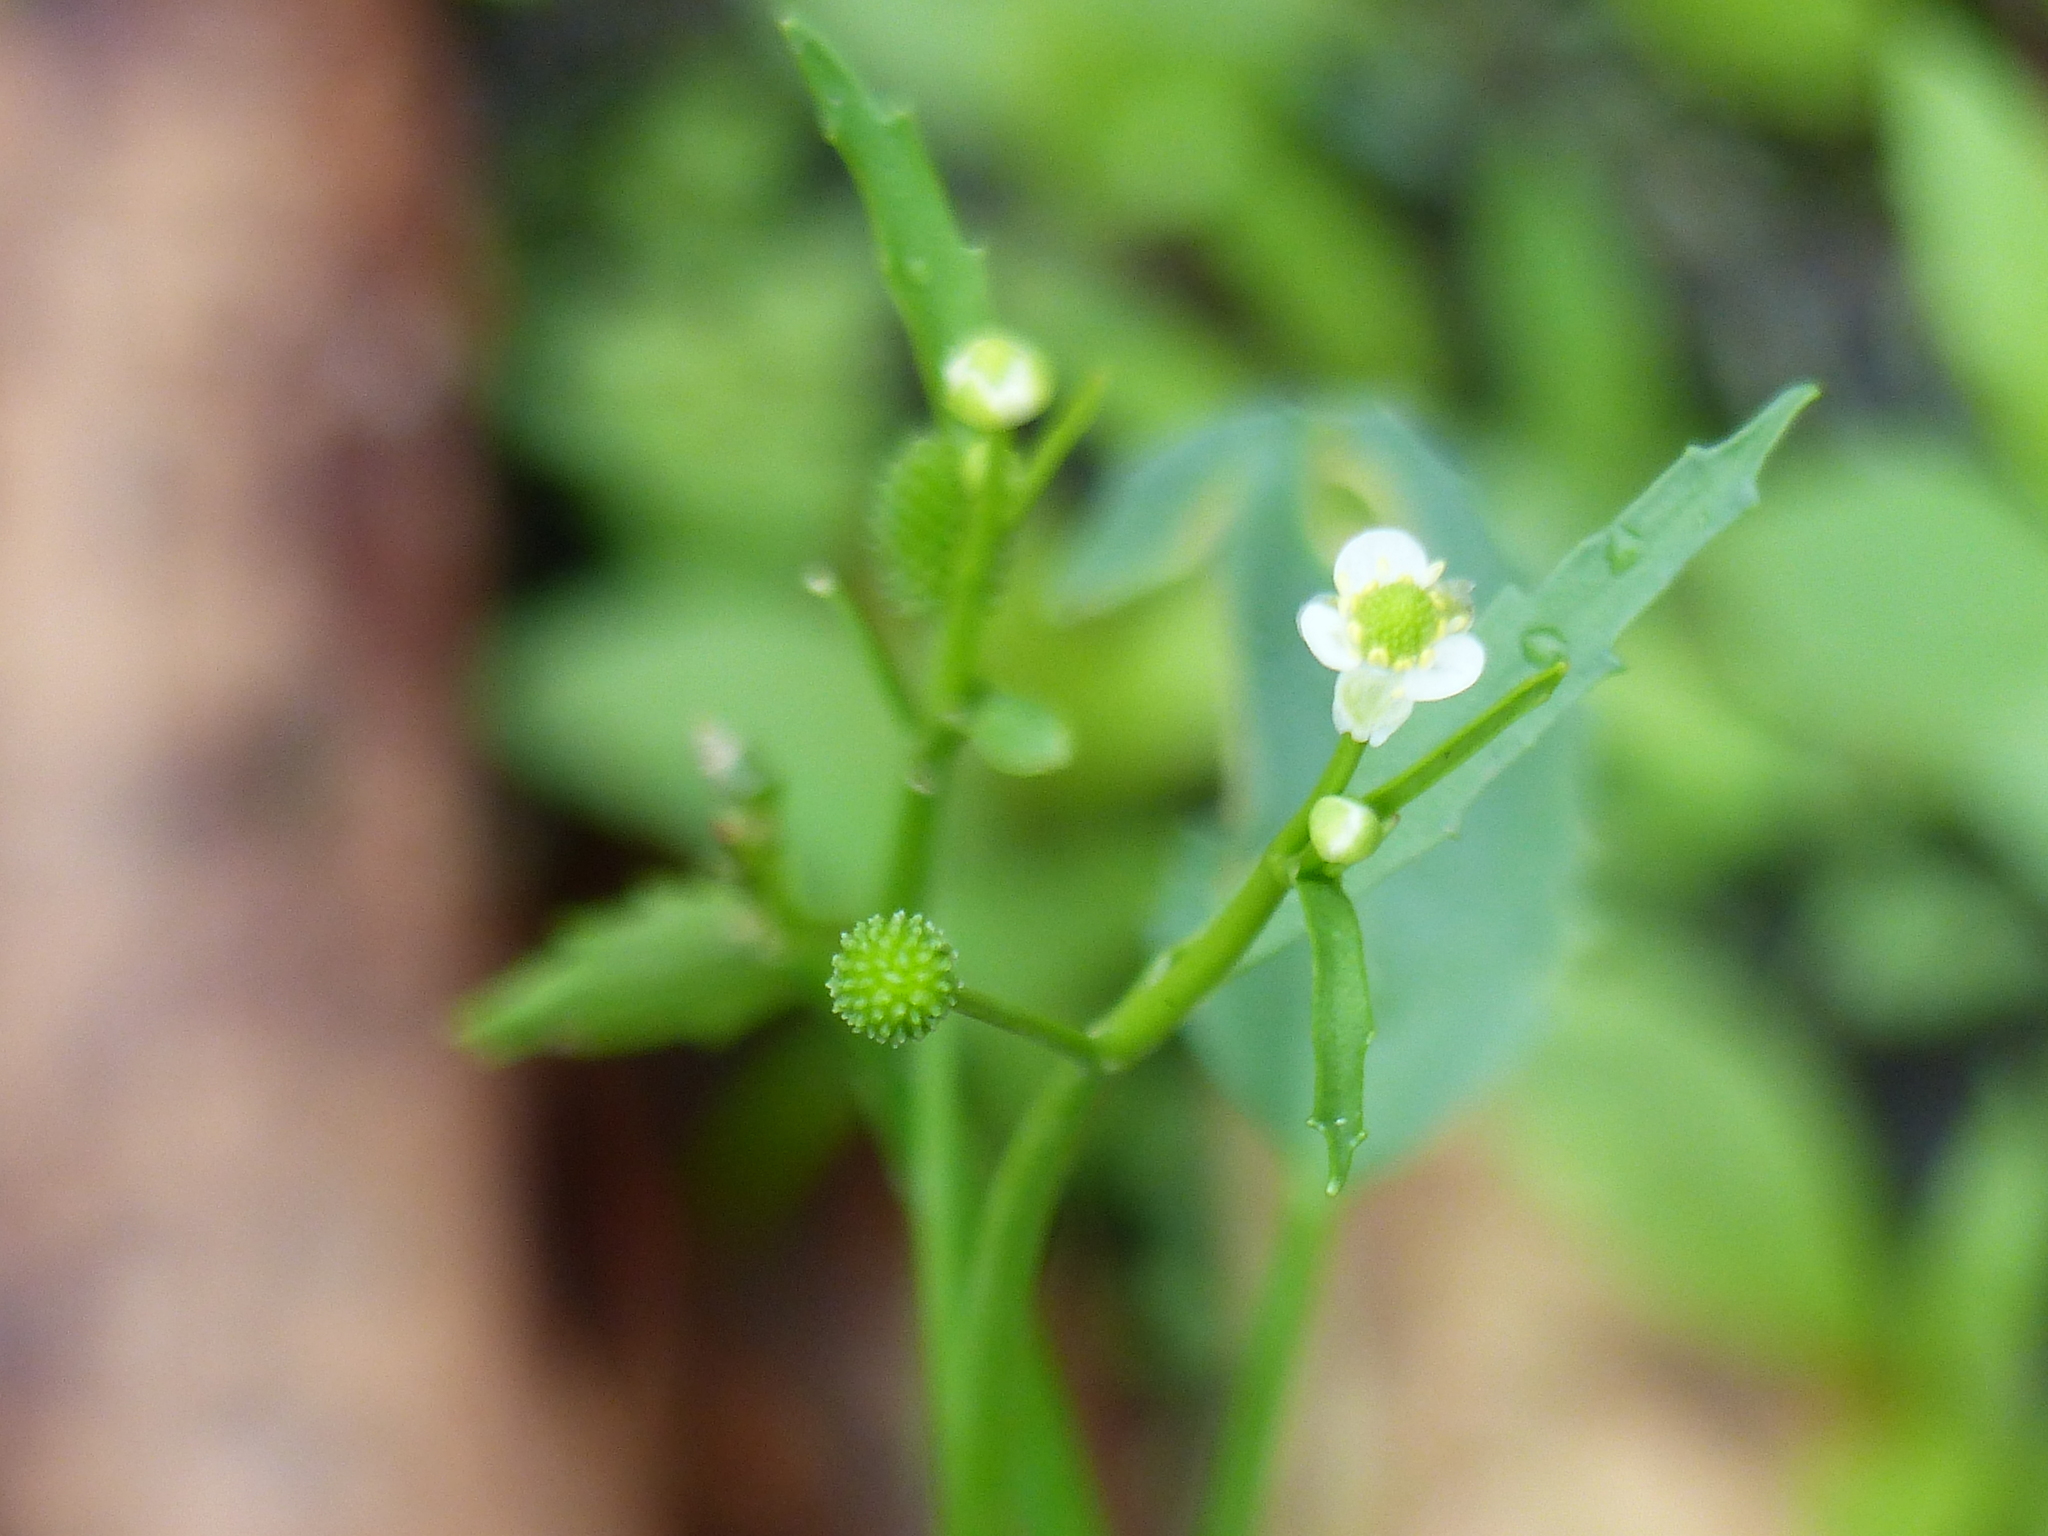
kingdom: Plantae
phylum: Tracheophyta
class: Magnoliopsida
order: Ranunculales
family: Ranunculaceae
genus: Ranunculus
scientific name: Ranunculus bonariensis
